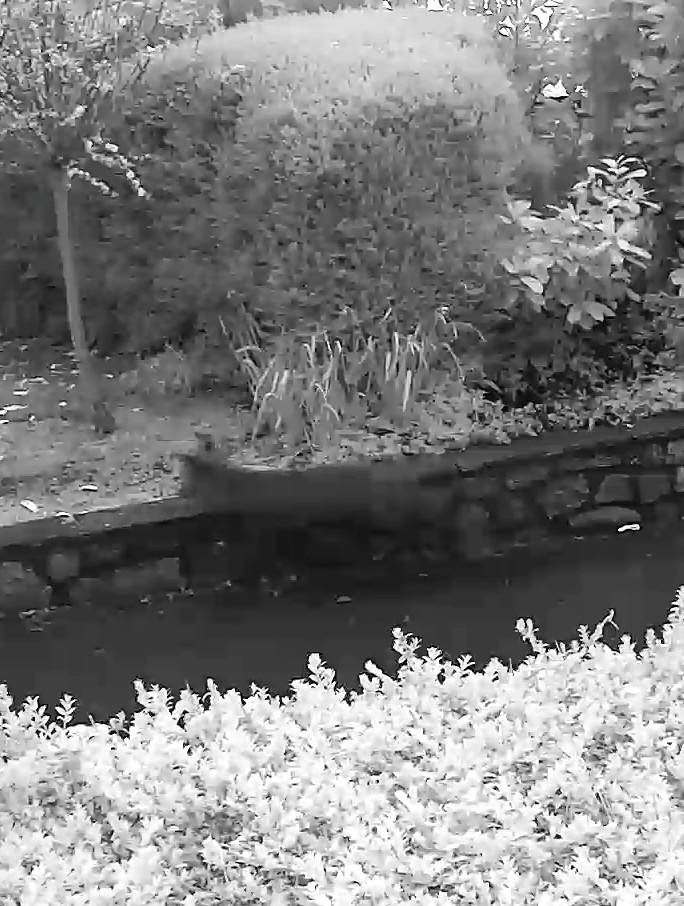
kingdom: Animalia
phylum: Chordata
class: Mammalia
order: Carnivora
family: Canidae
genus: Vulpes
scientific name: Vulpes vulpes
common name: Red fox
